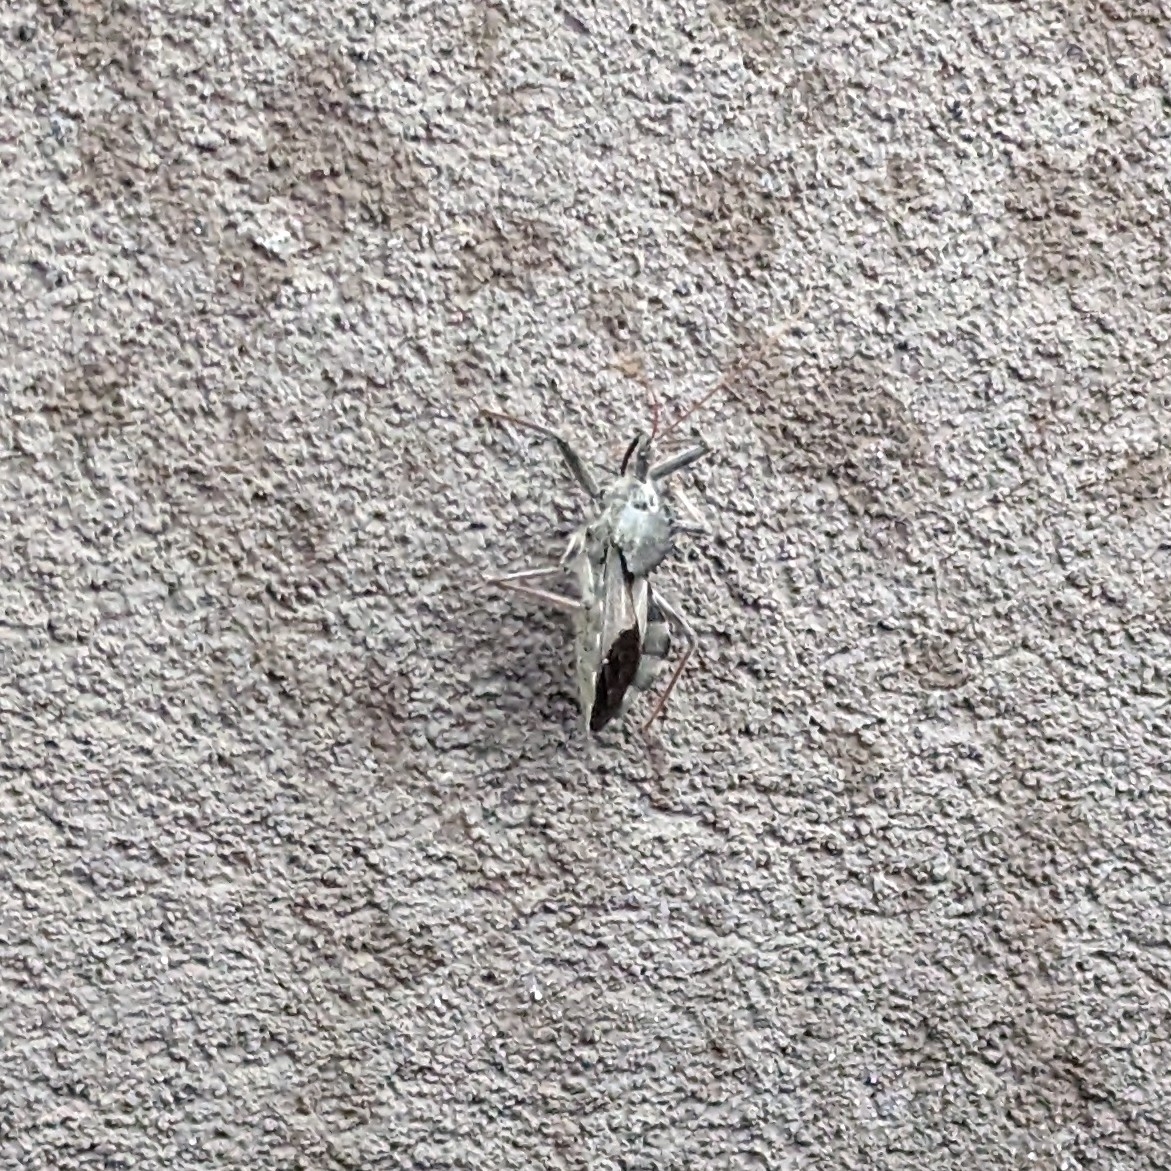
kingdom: Animalia
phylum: Arthropoda
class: Insecta
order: Hemiptera
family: Reduviidae
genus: Arilus
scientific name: Arilus cristatus
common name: North american wheel bug
